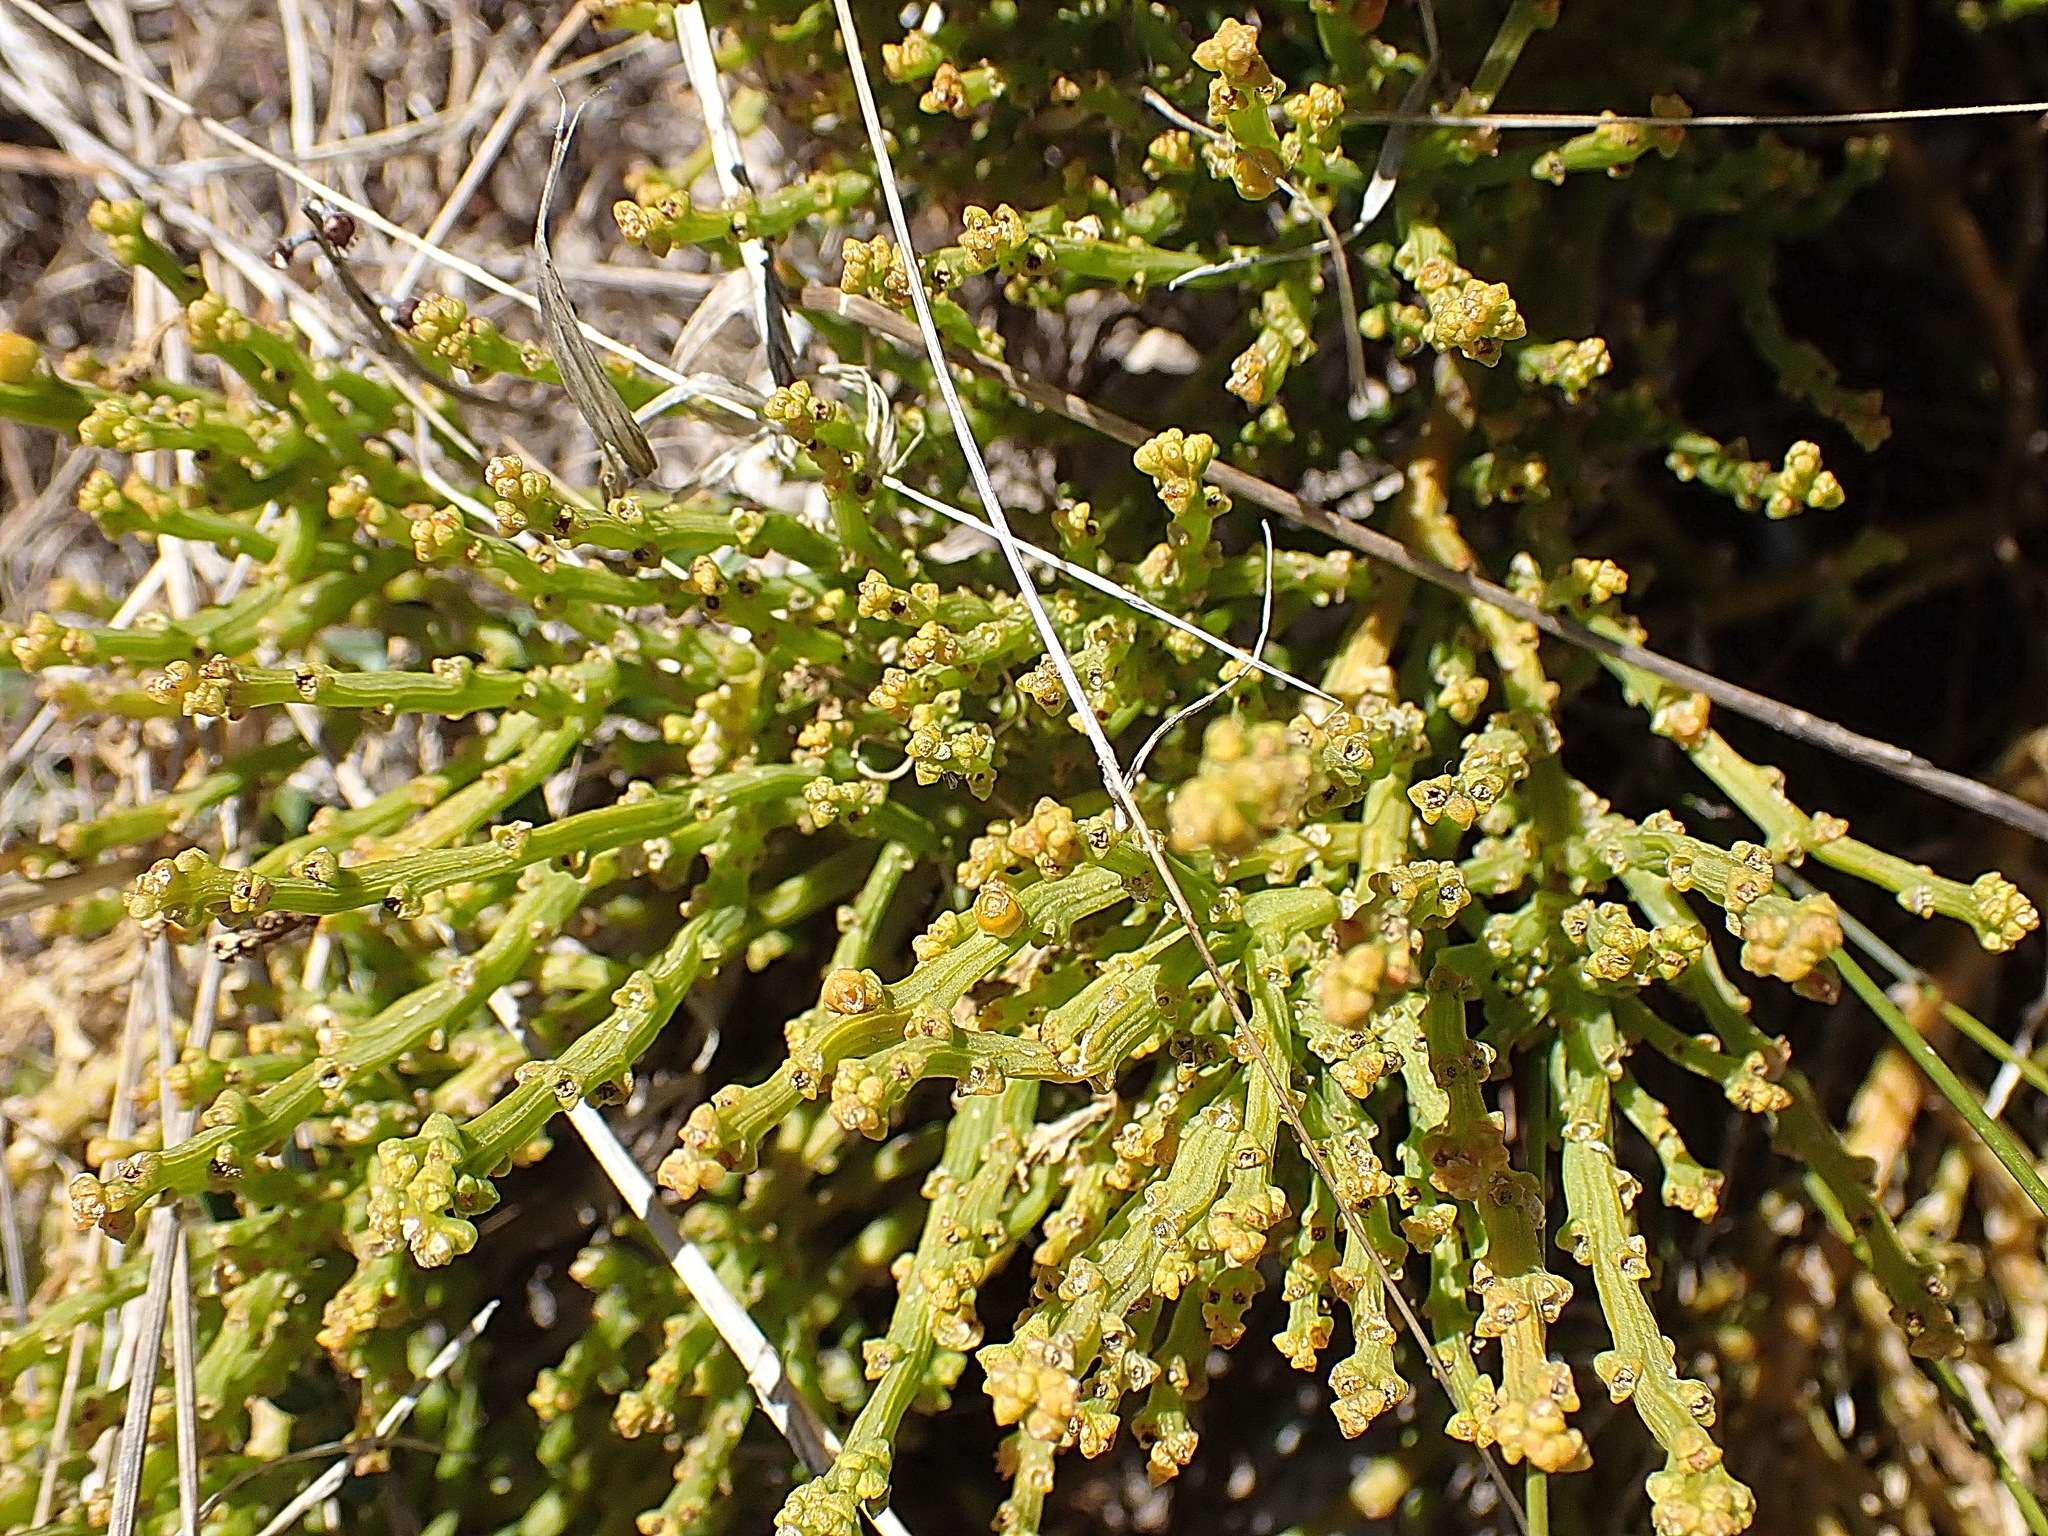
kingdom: Plantae
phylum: Tracheophyta
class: Magnoliopsida
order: Santalales
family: Thesiaceae
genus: Thesium
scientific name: Thesium fragile
